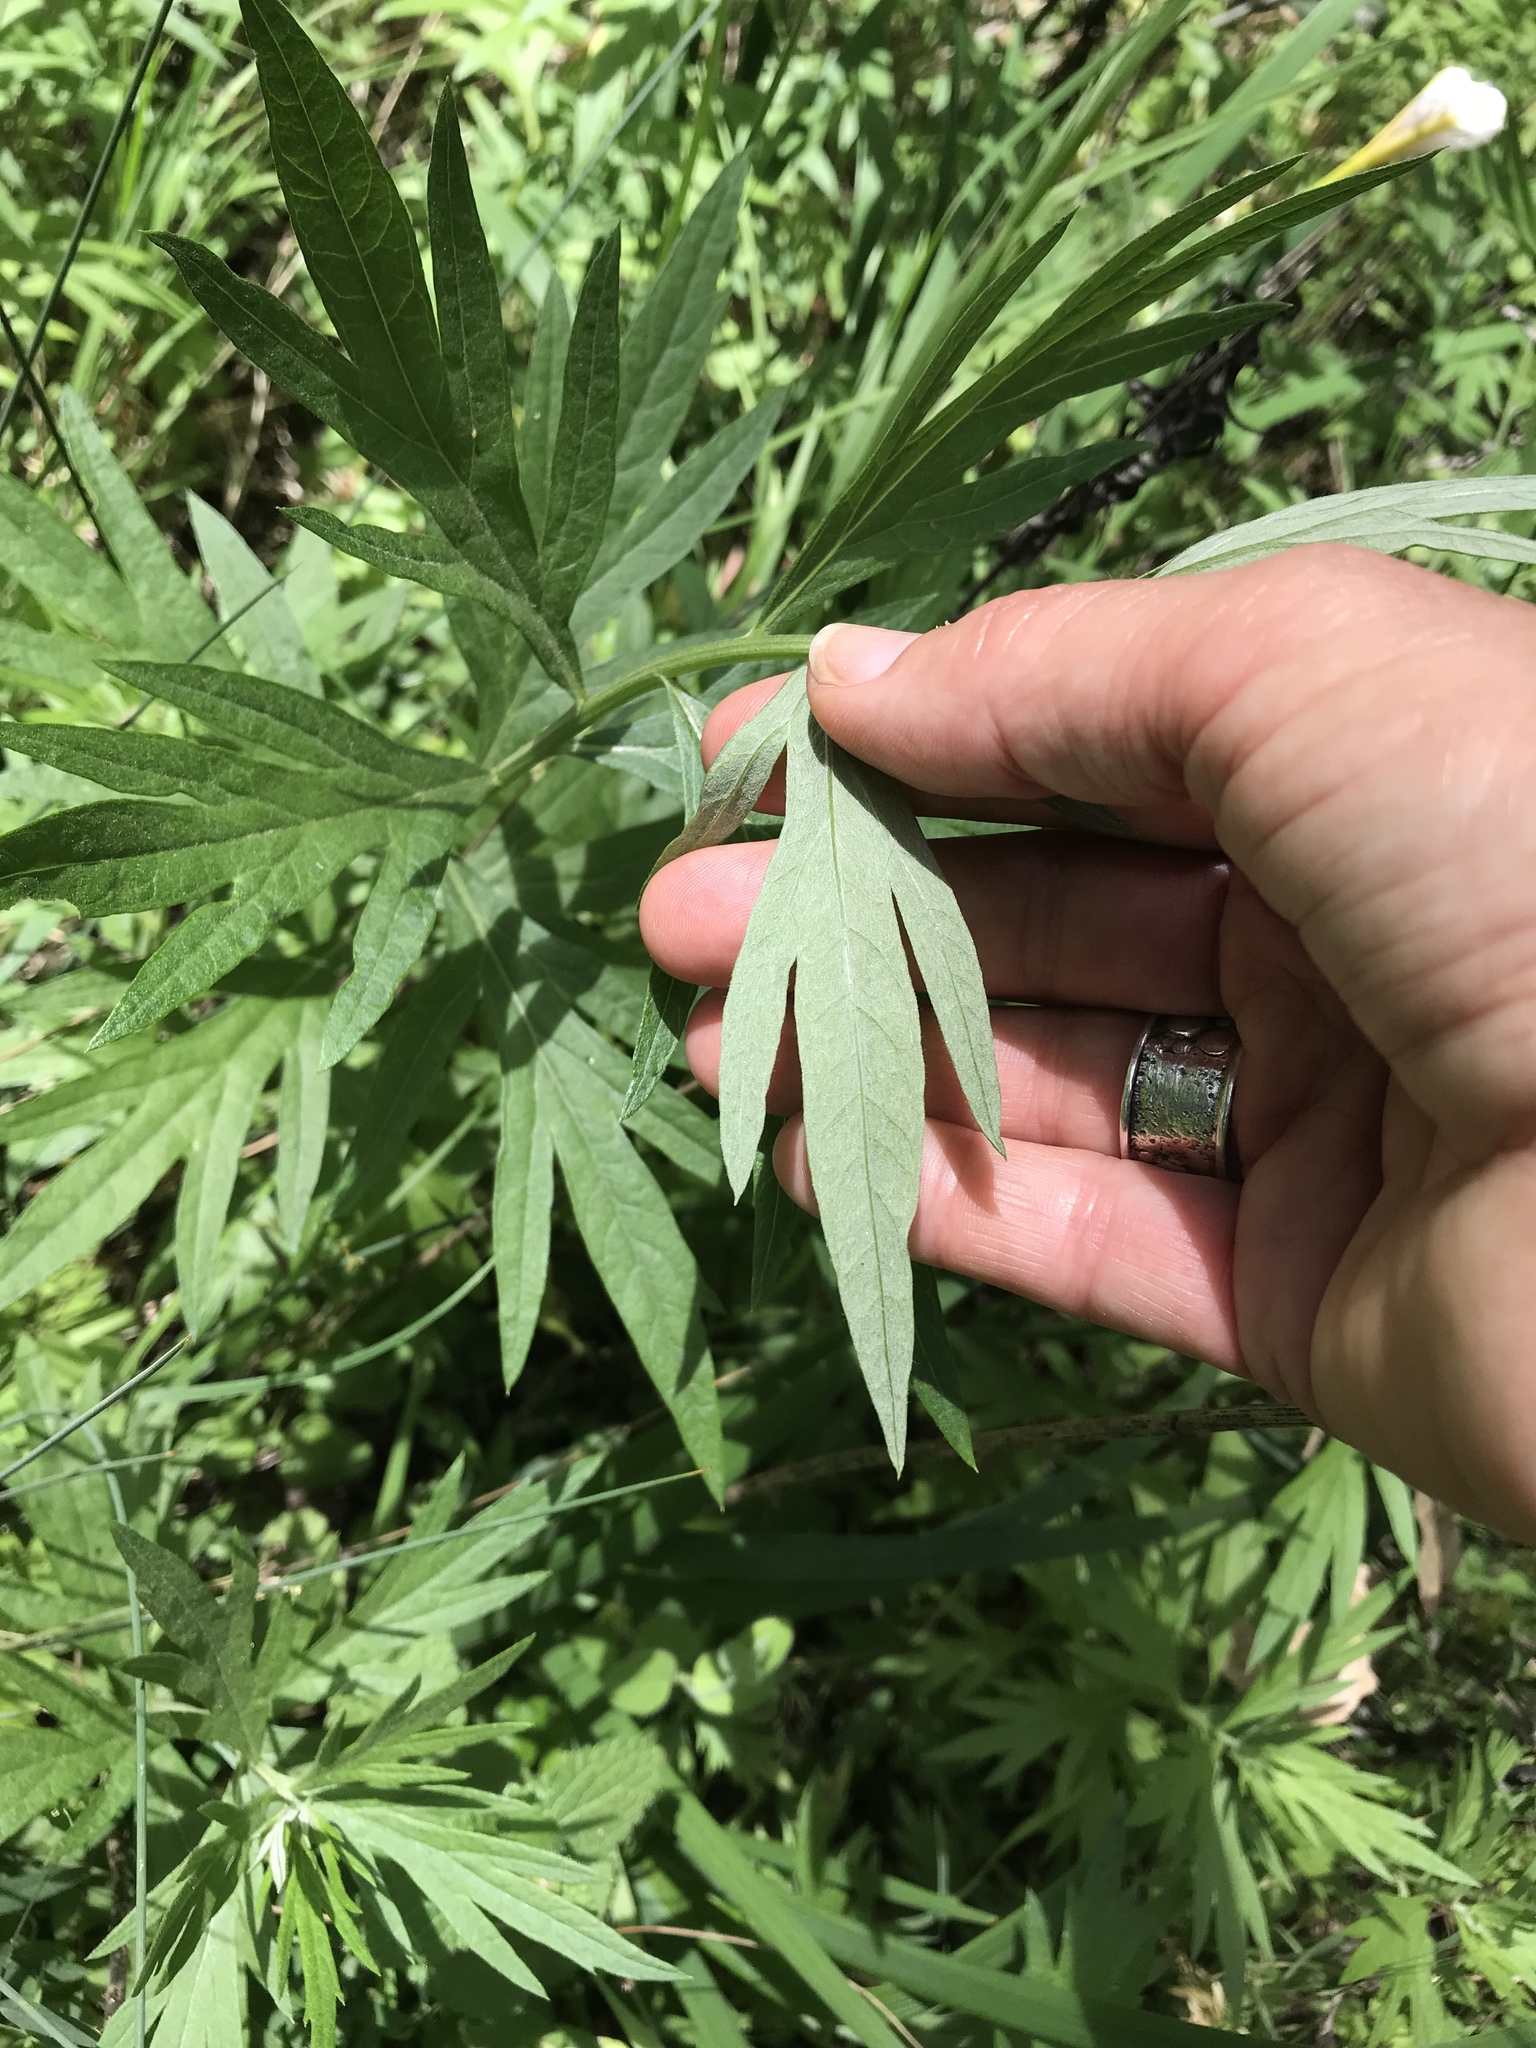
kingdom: Plantae
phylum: Tracheophyta
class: Magnoliopsida
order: Asterales
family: Asteraceae
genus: Artemisia
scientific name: Artemisia douglasiana
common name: Northwest mugwort
